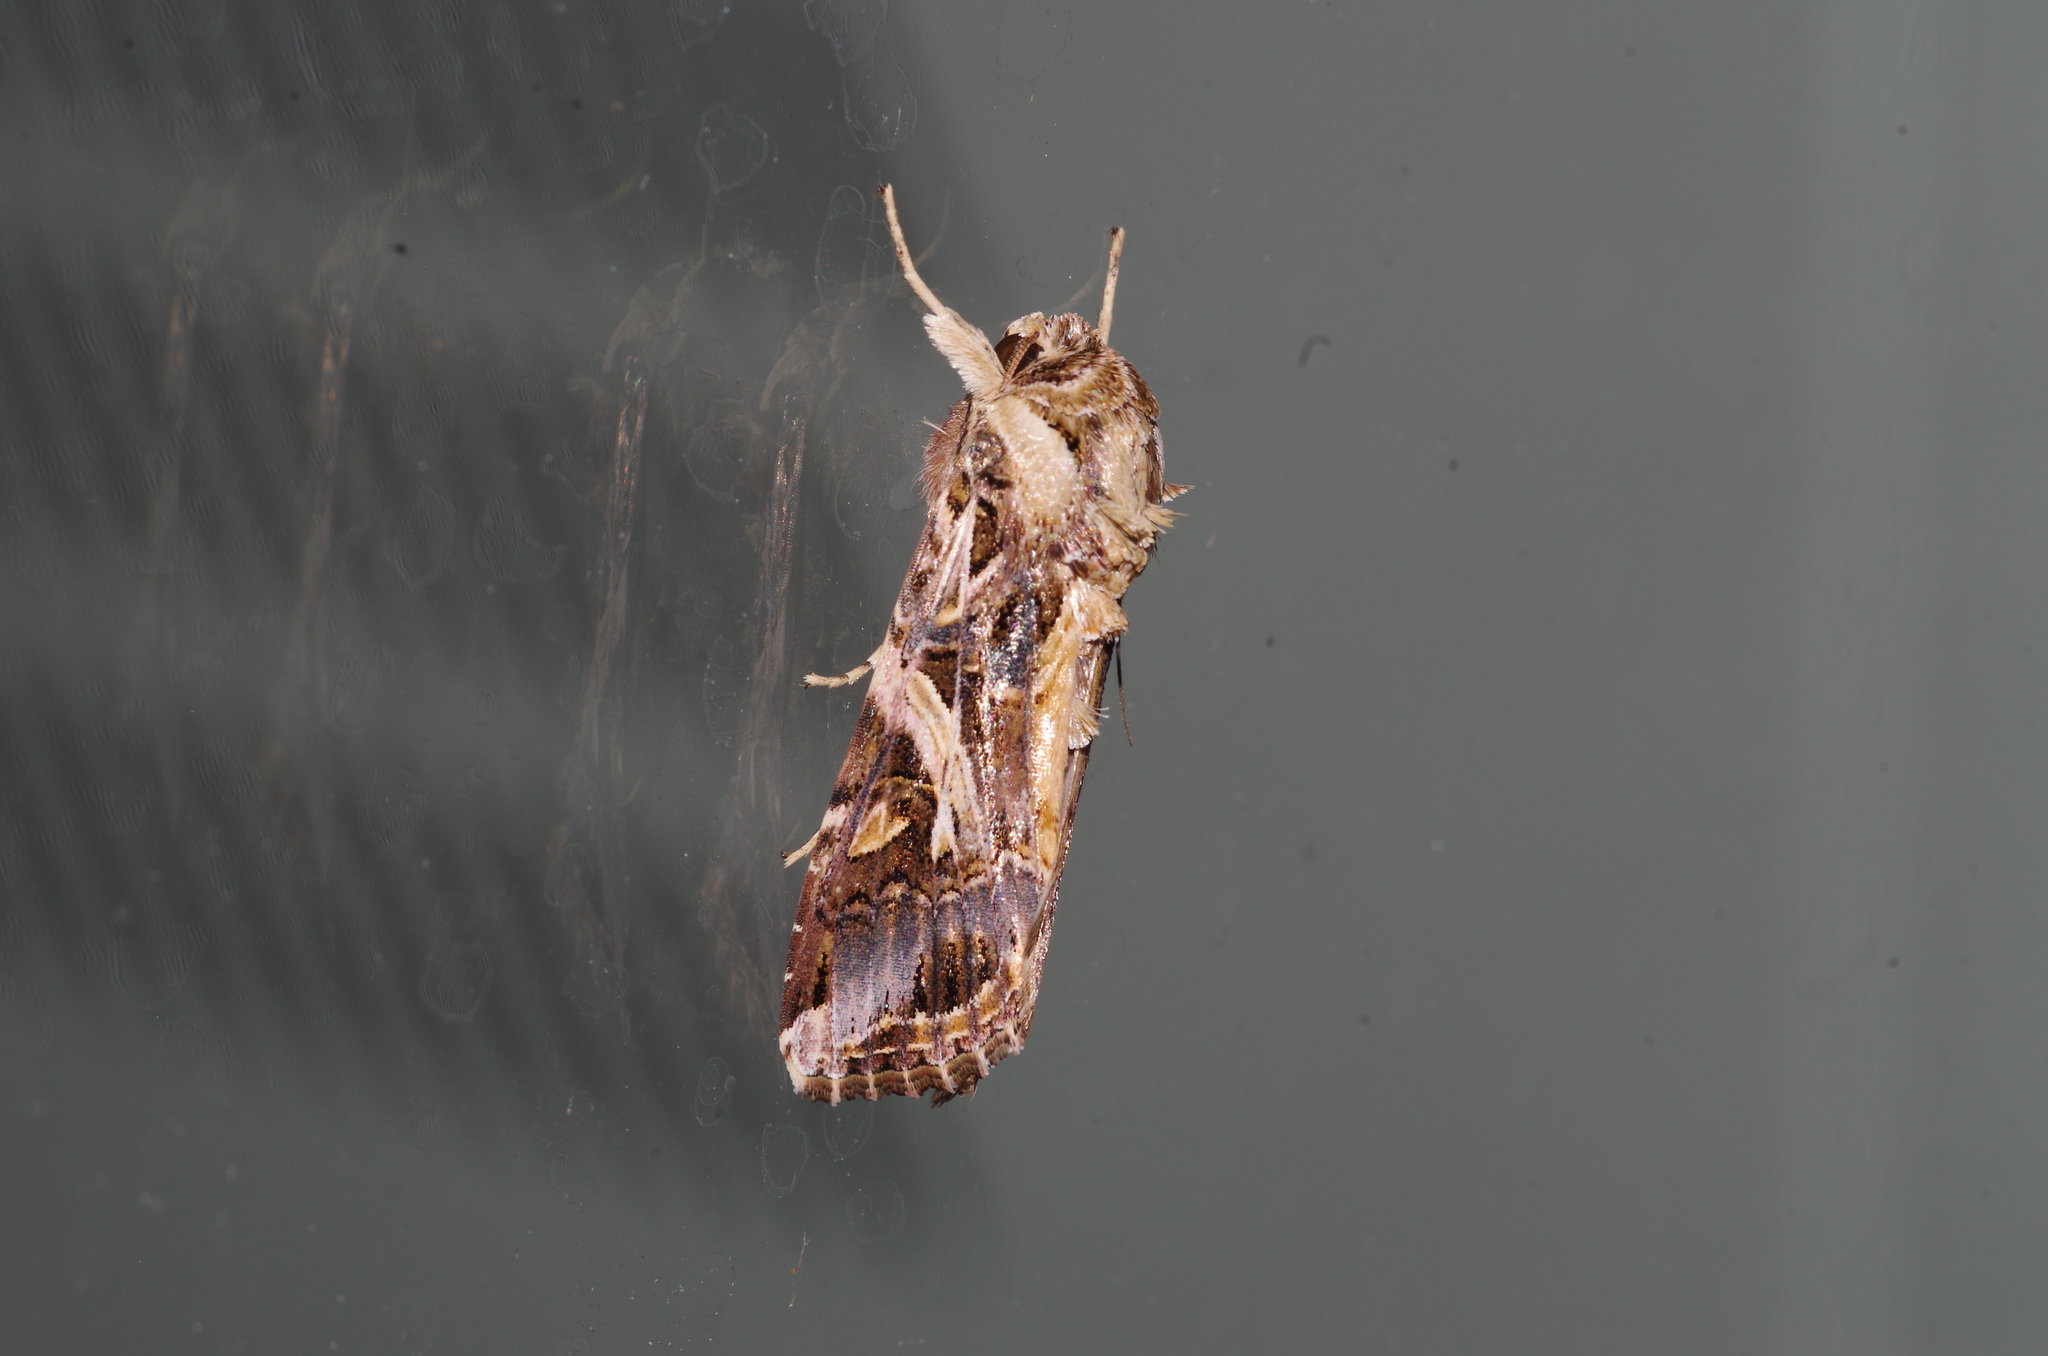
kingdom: Animalia
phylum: Arthropoda
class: Insecta
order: Lepidoptera
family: Noctuidae
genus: Spodoptera
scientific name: Spodoptera litura
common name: Asian cotton leafworm
